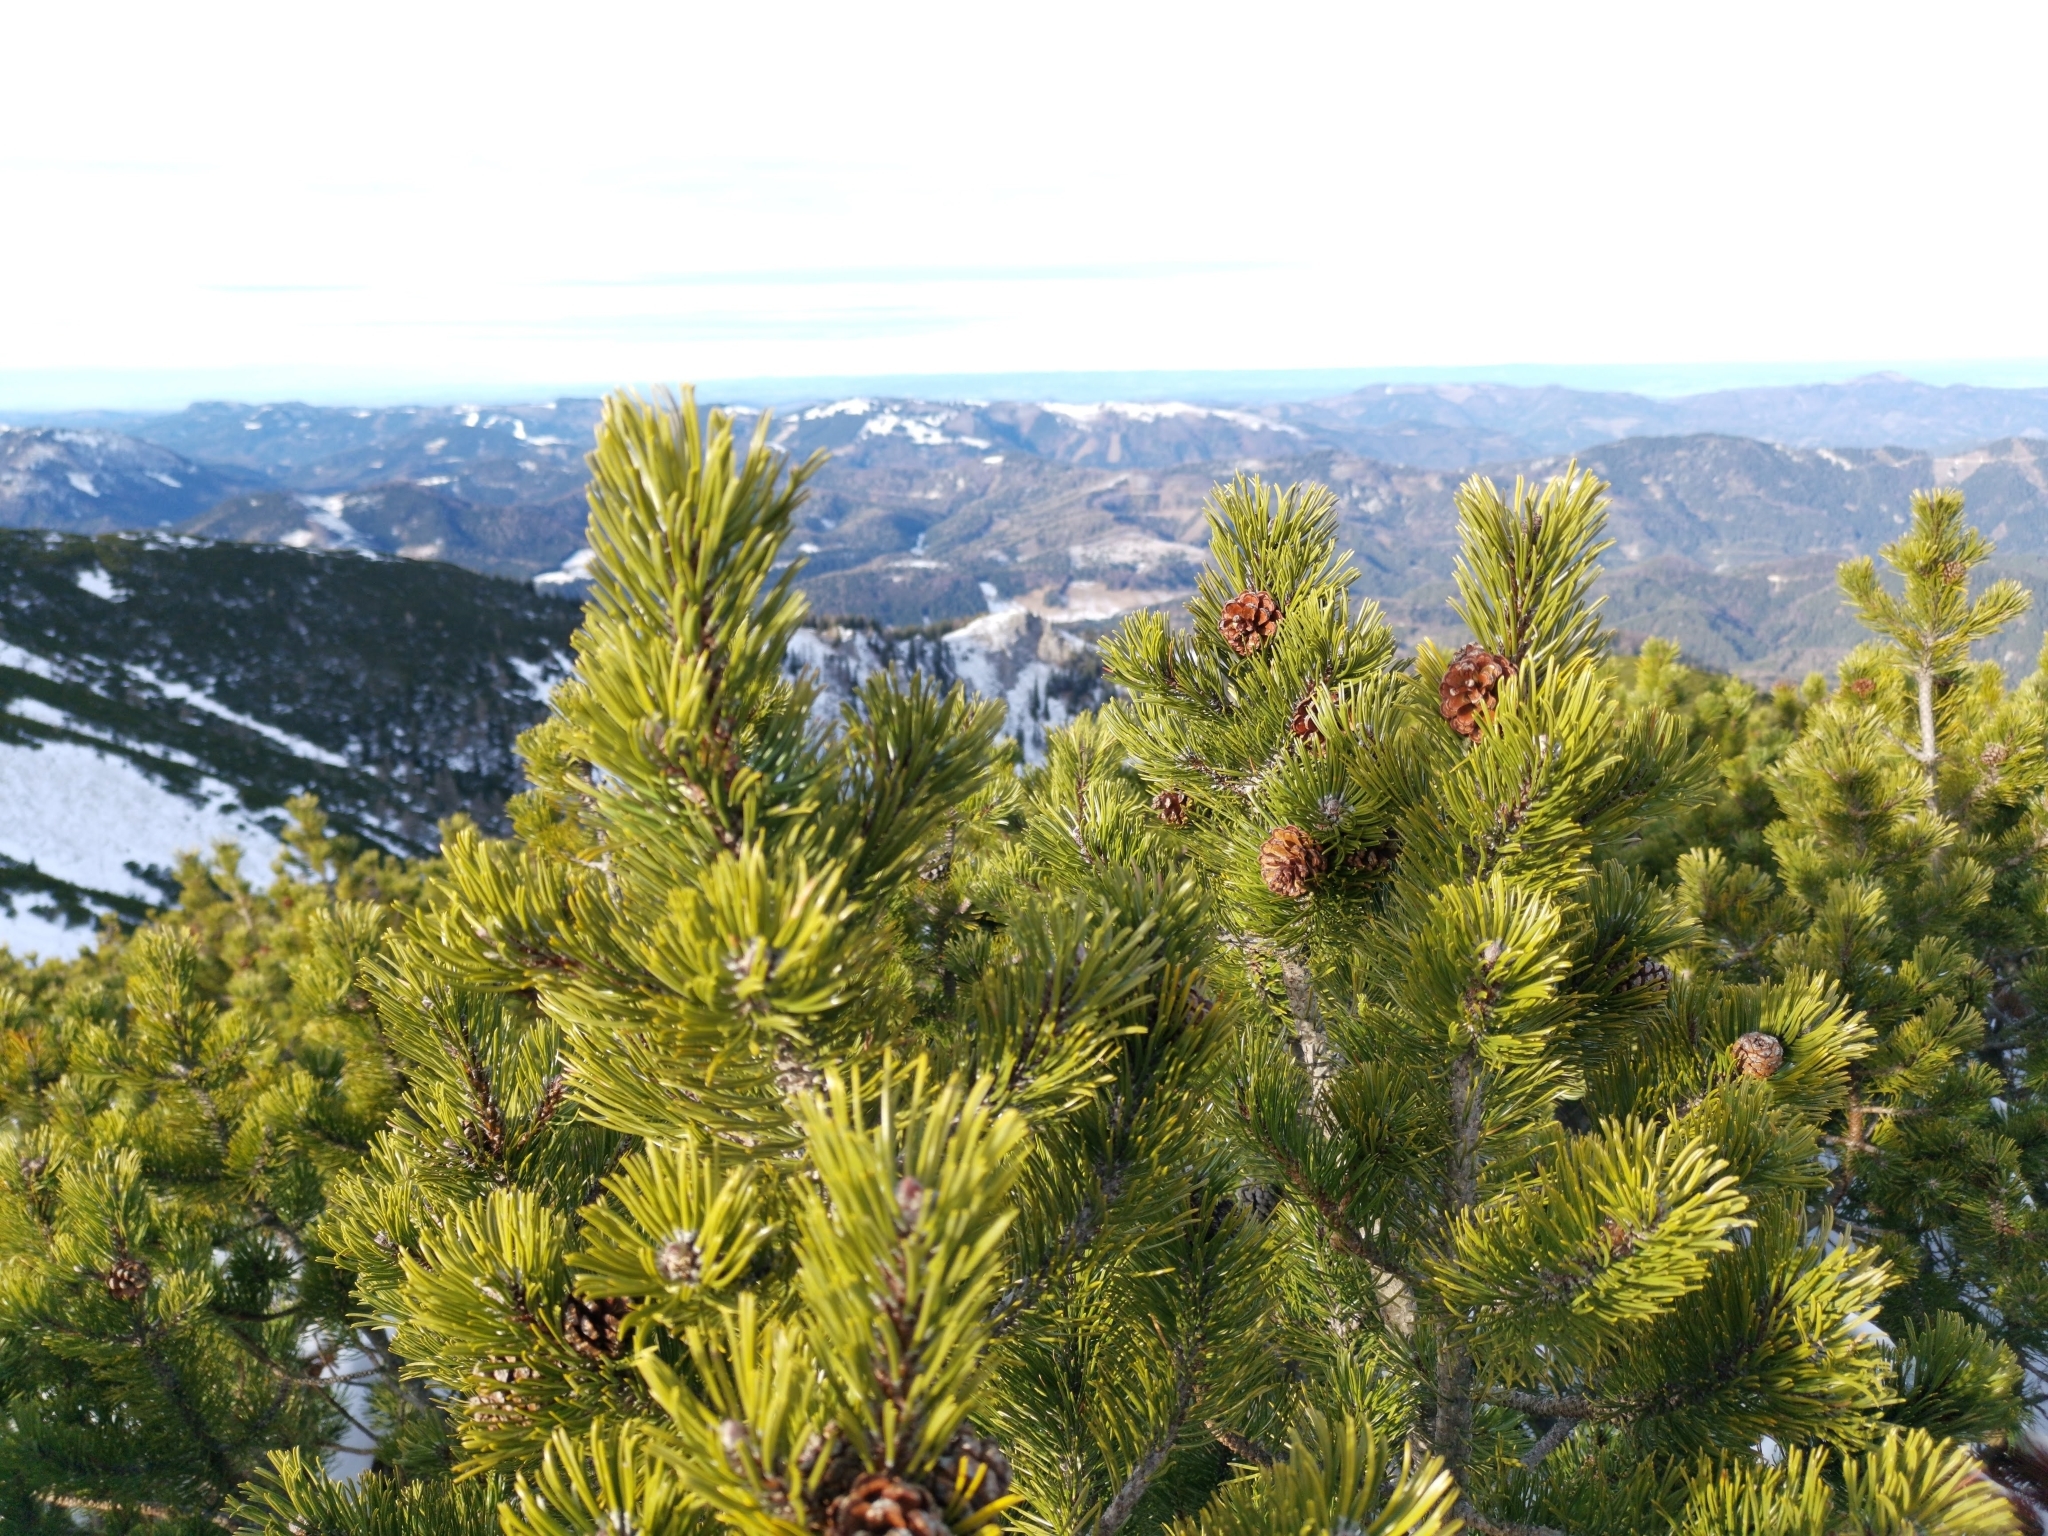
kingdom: Plantae
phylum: Tracheophyta
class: Pinopsida
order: Pinales
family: Pinaceae
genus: Pinus
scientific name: Pinus mugo
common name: Mugo pine
